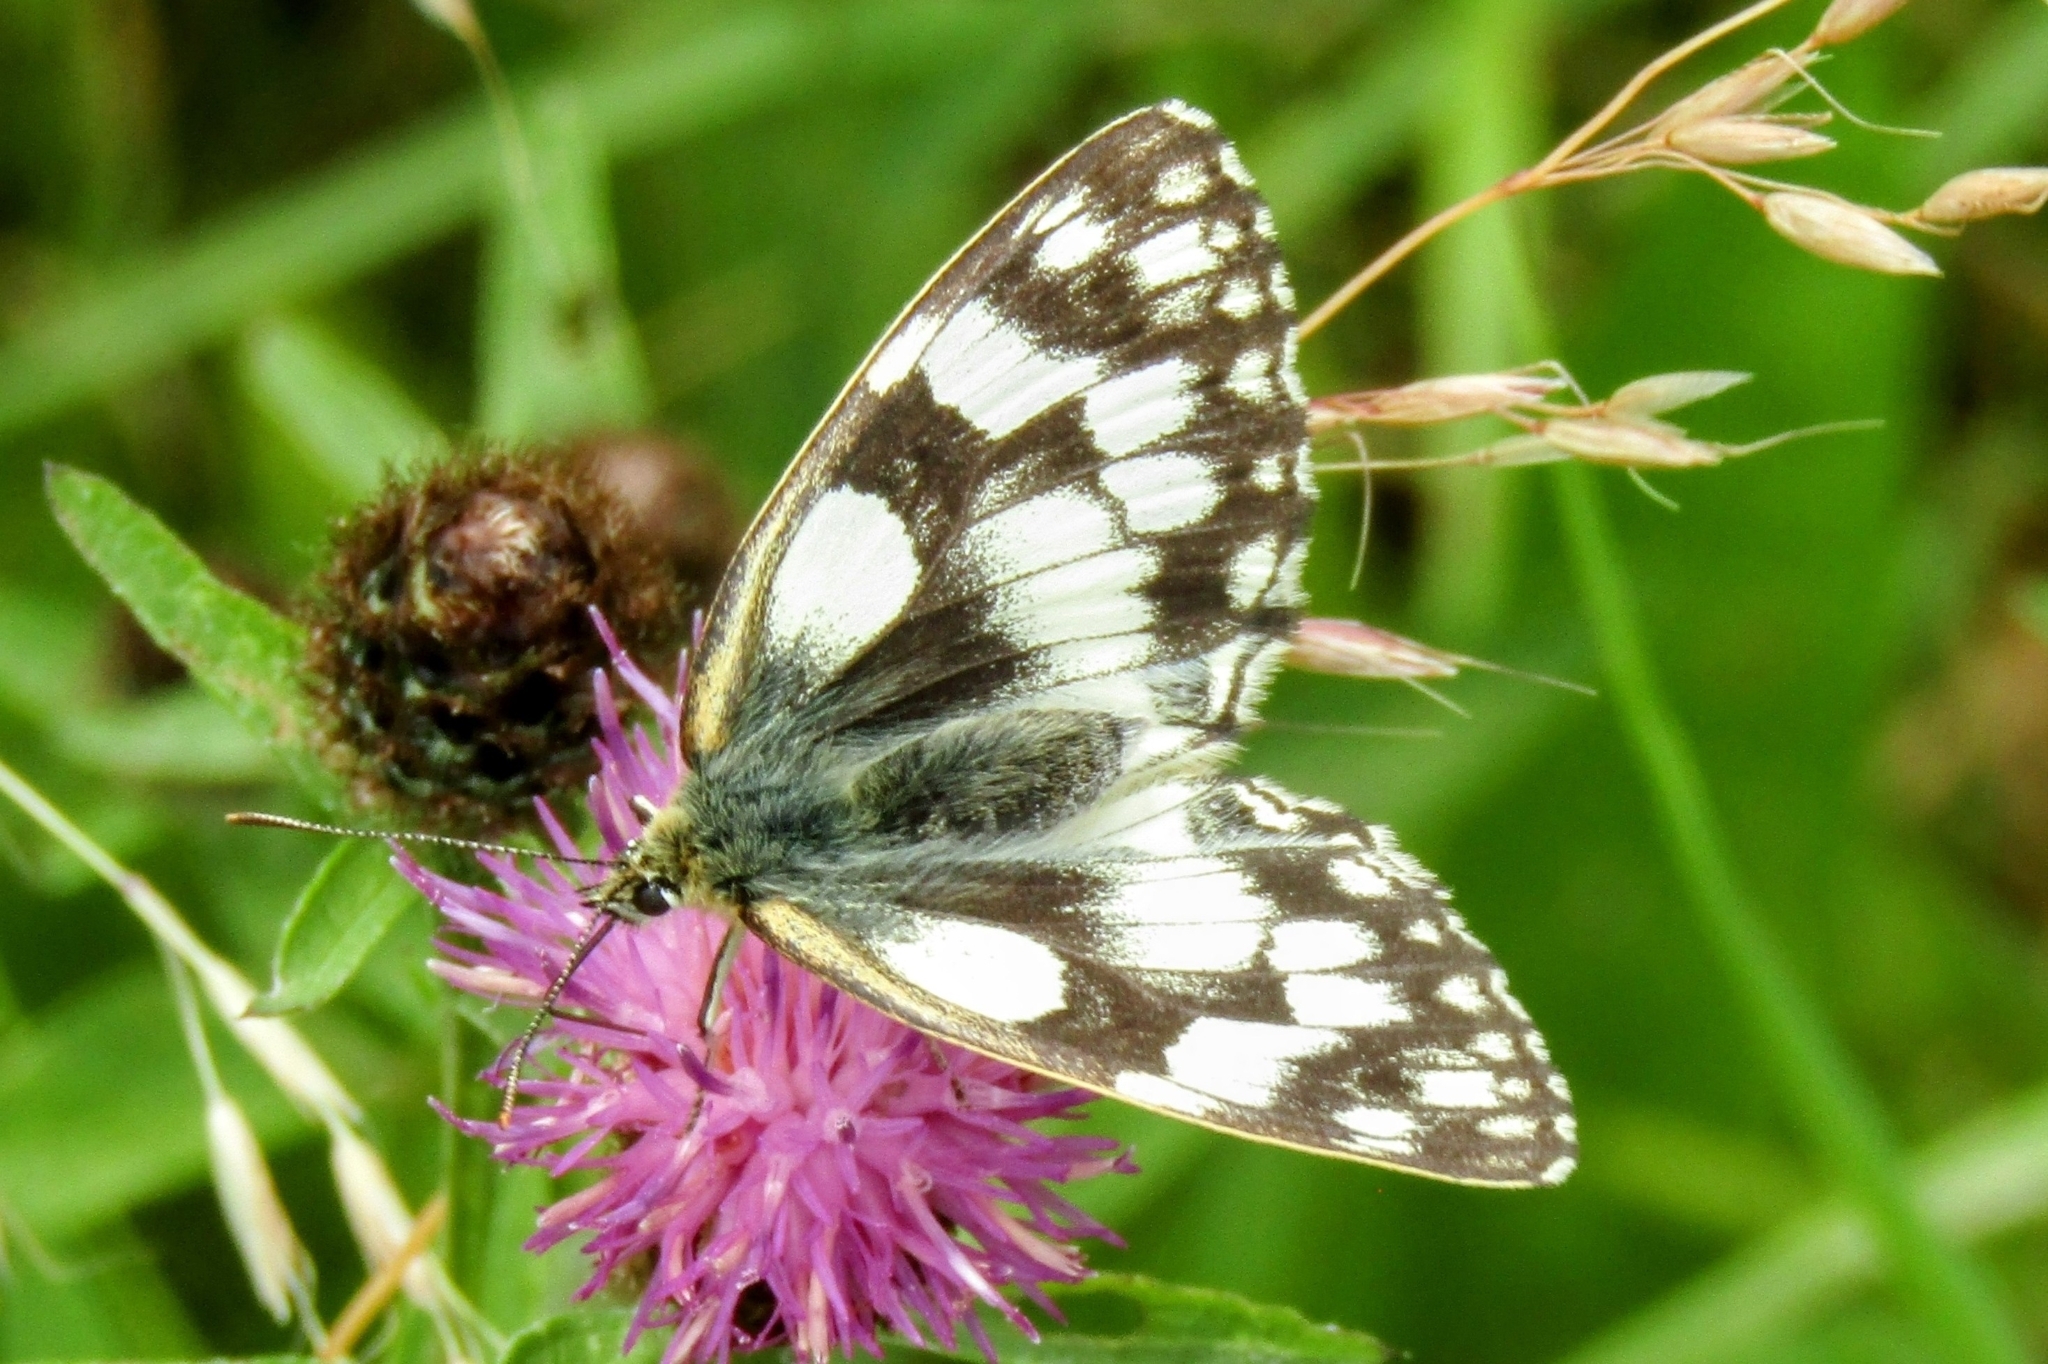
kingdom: Animalia
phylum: Arthropoda
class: Insecta
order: Lepidoptera
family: Nymphalidae
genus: Melanargia
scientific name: Melanargia galathea
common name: Marbled white
